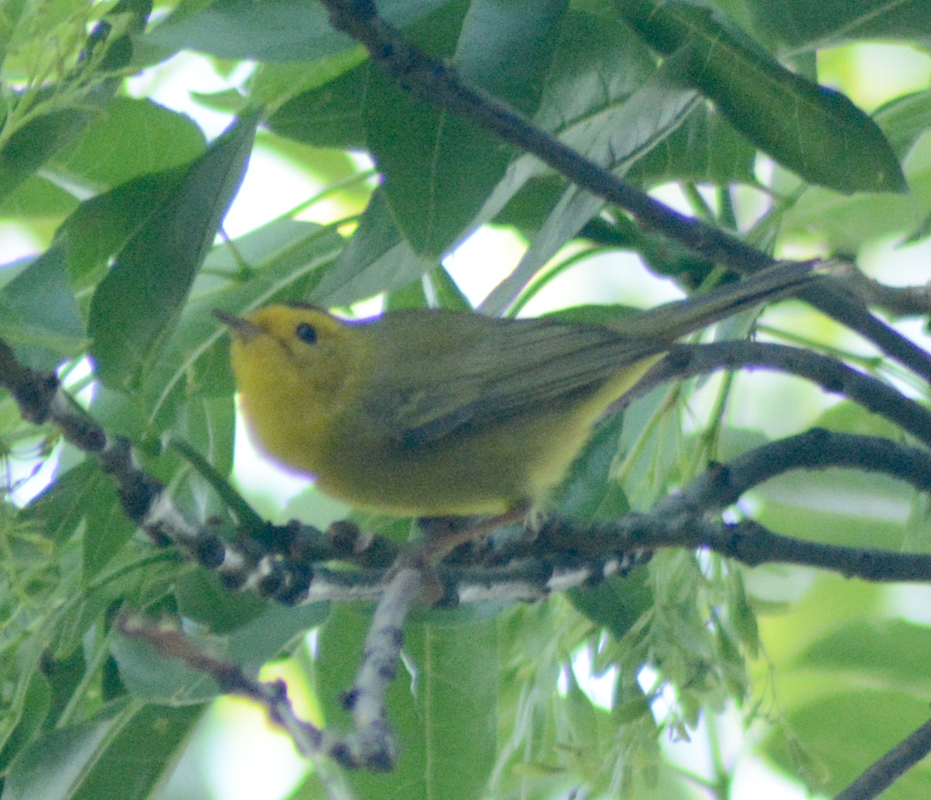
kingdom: Animalia
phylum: Chordata
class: Aves
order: Passeriformes
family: Parulidae
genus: Cardellina
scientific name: Cardellina pusilla
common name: Wilson's warbler
